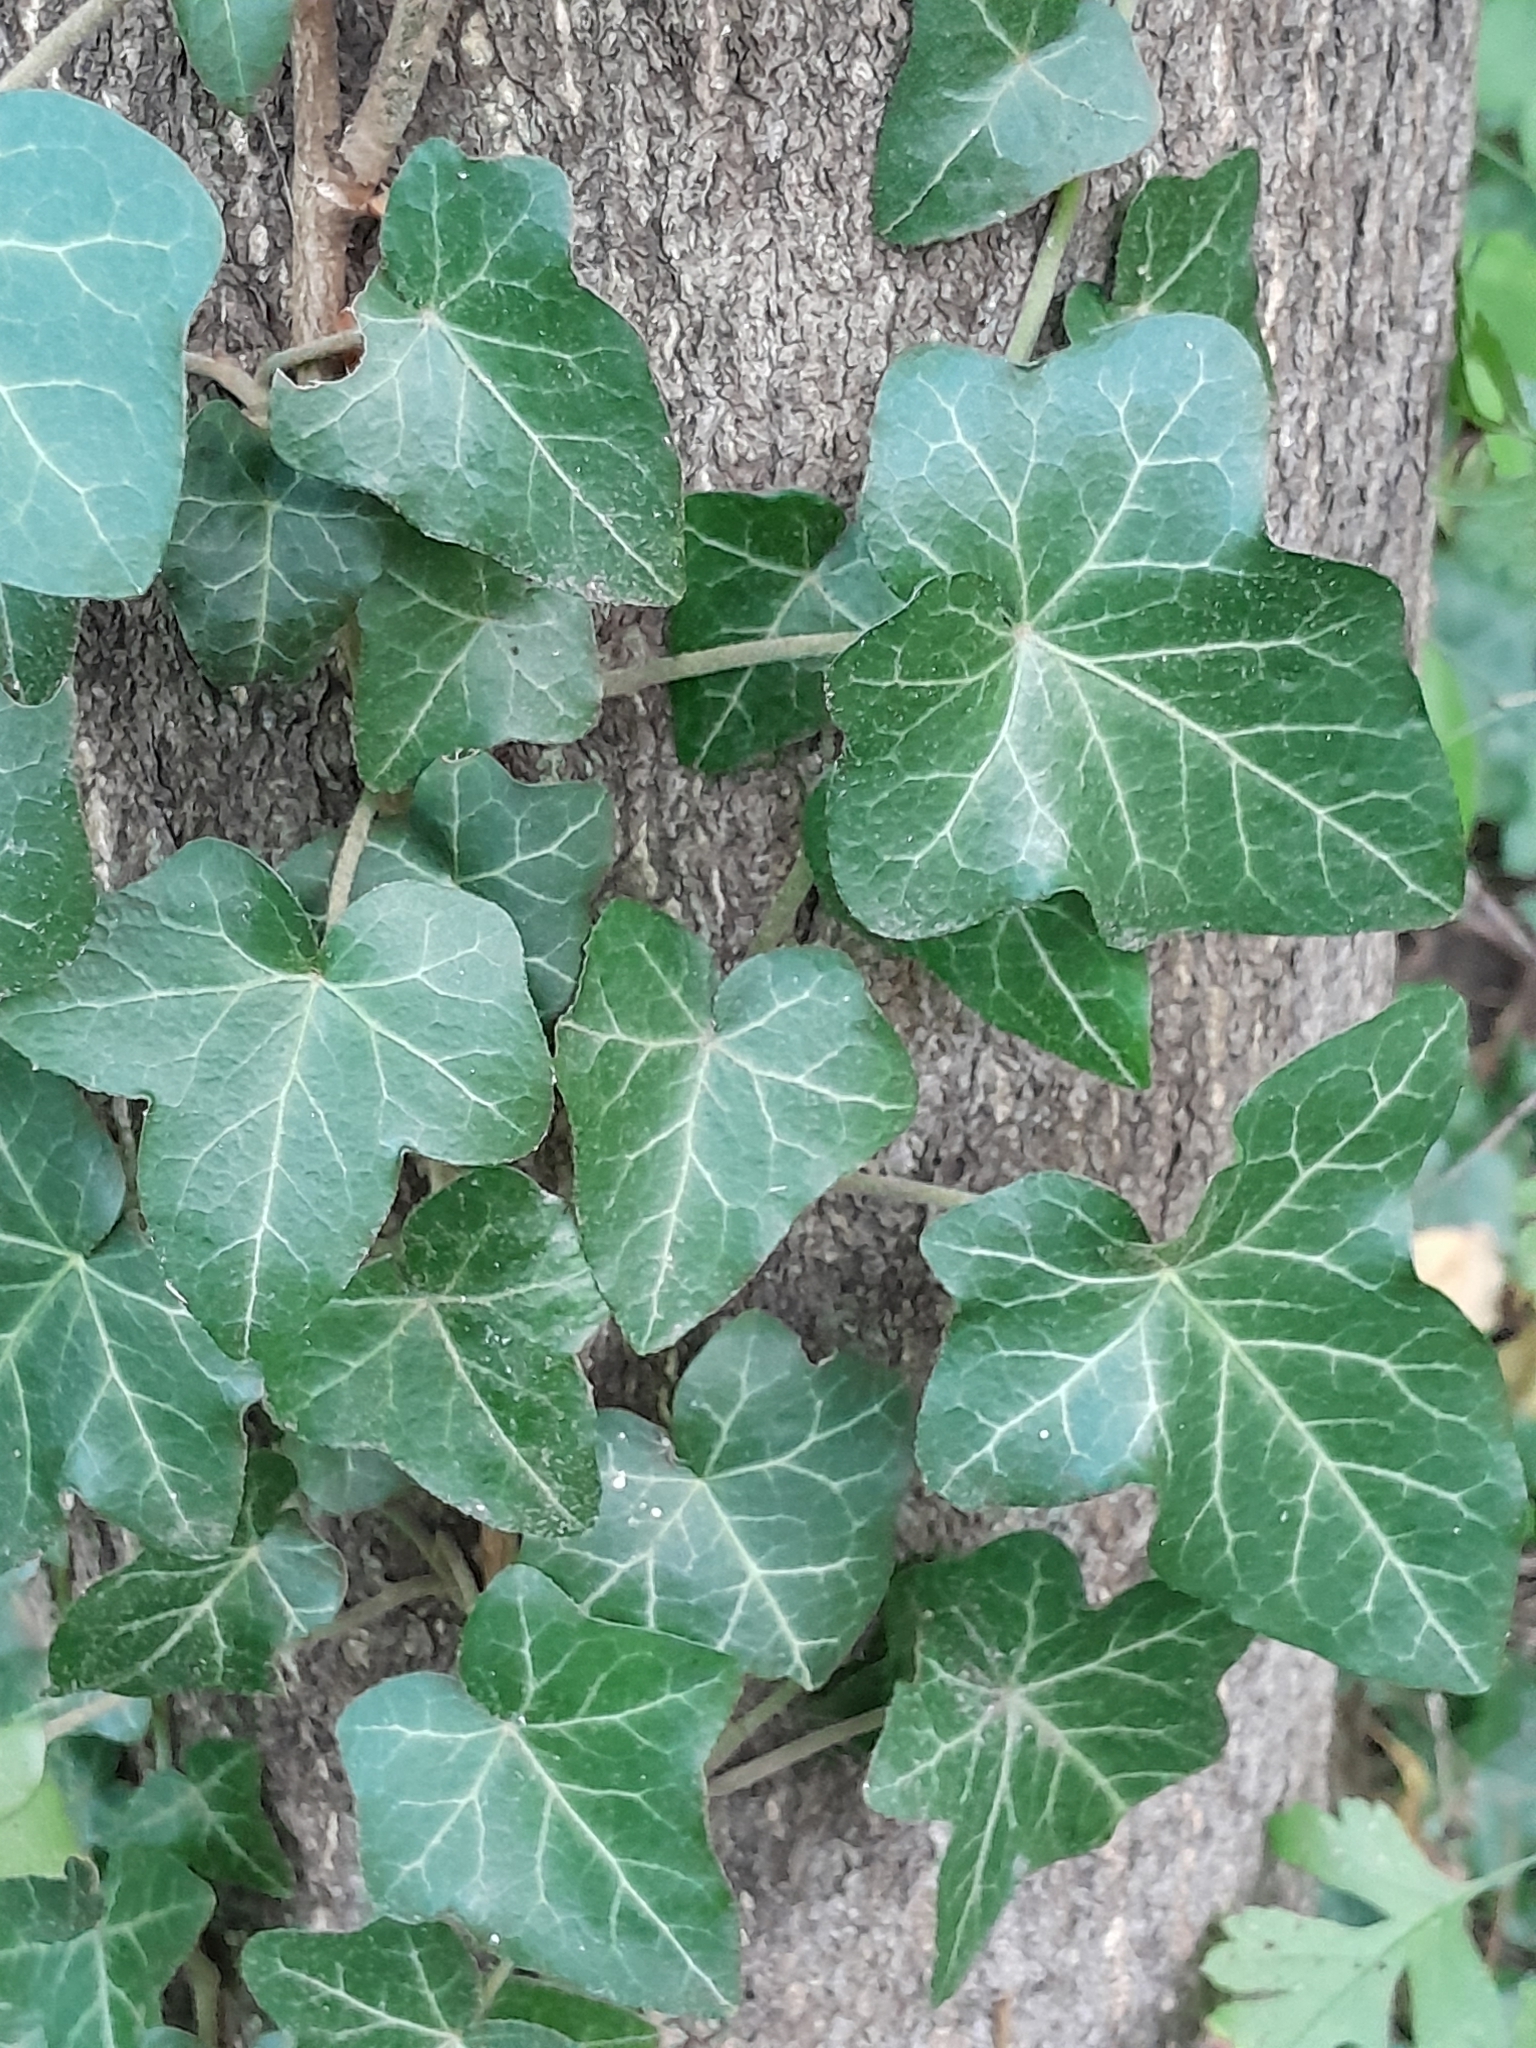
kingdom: Plantae
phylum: Tracheophyta
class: Magnoliopsida
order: Apiales
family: Araliaceae
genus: Hedera
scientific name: Hedera helix
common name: Ivy
